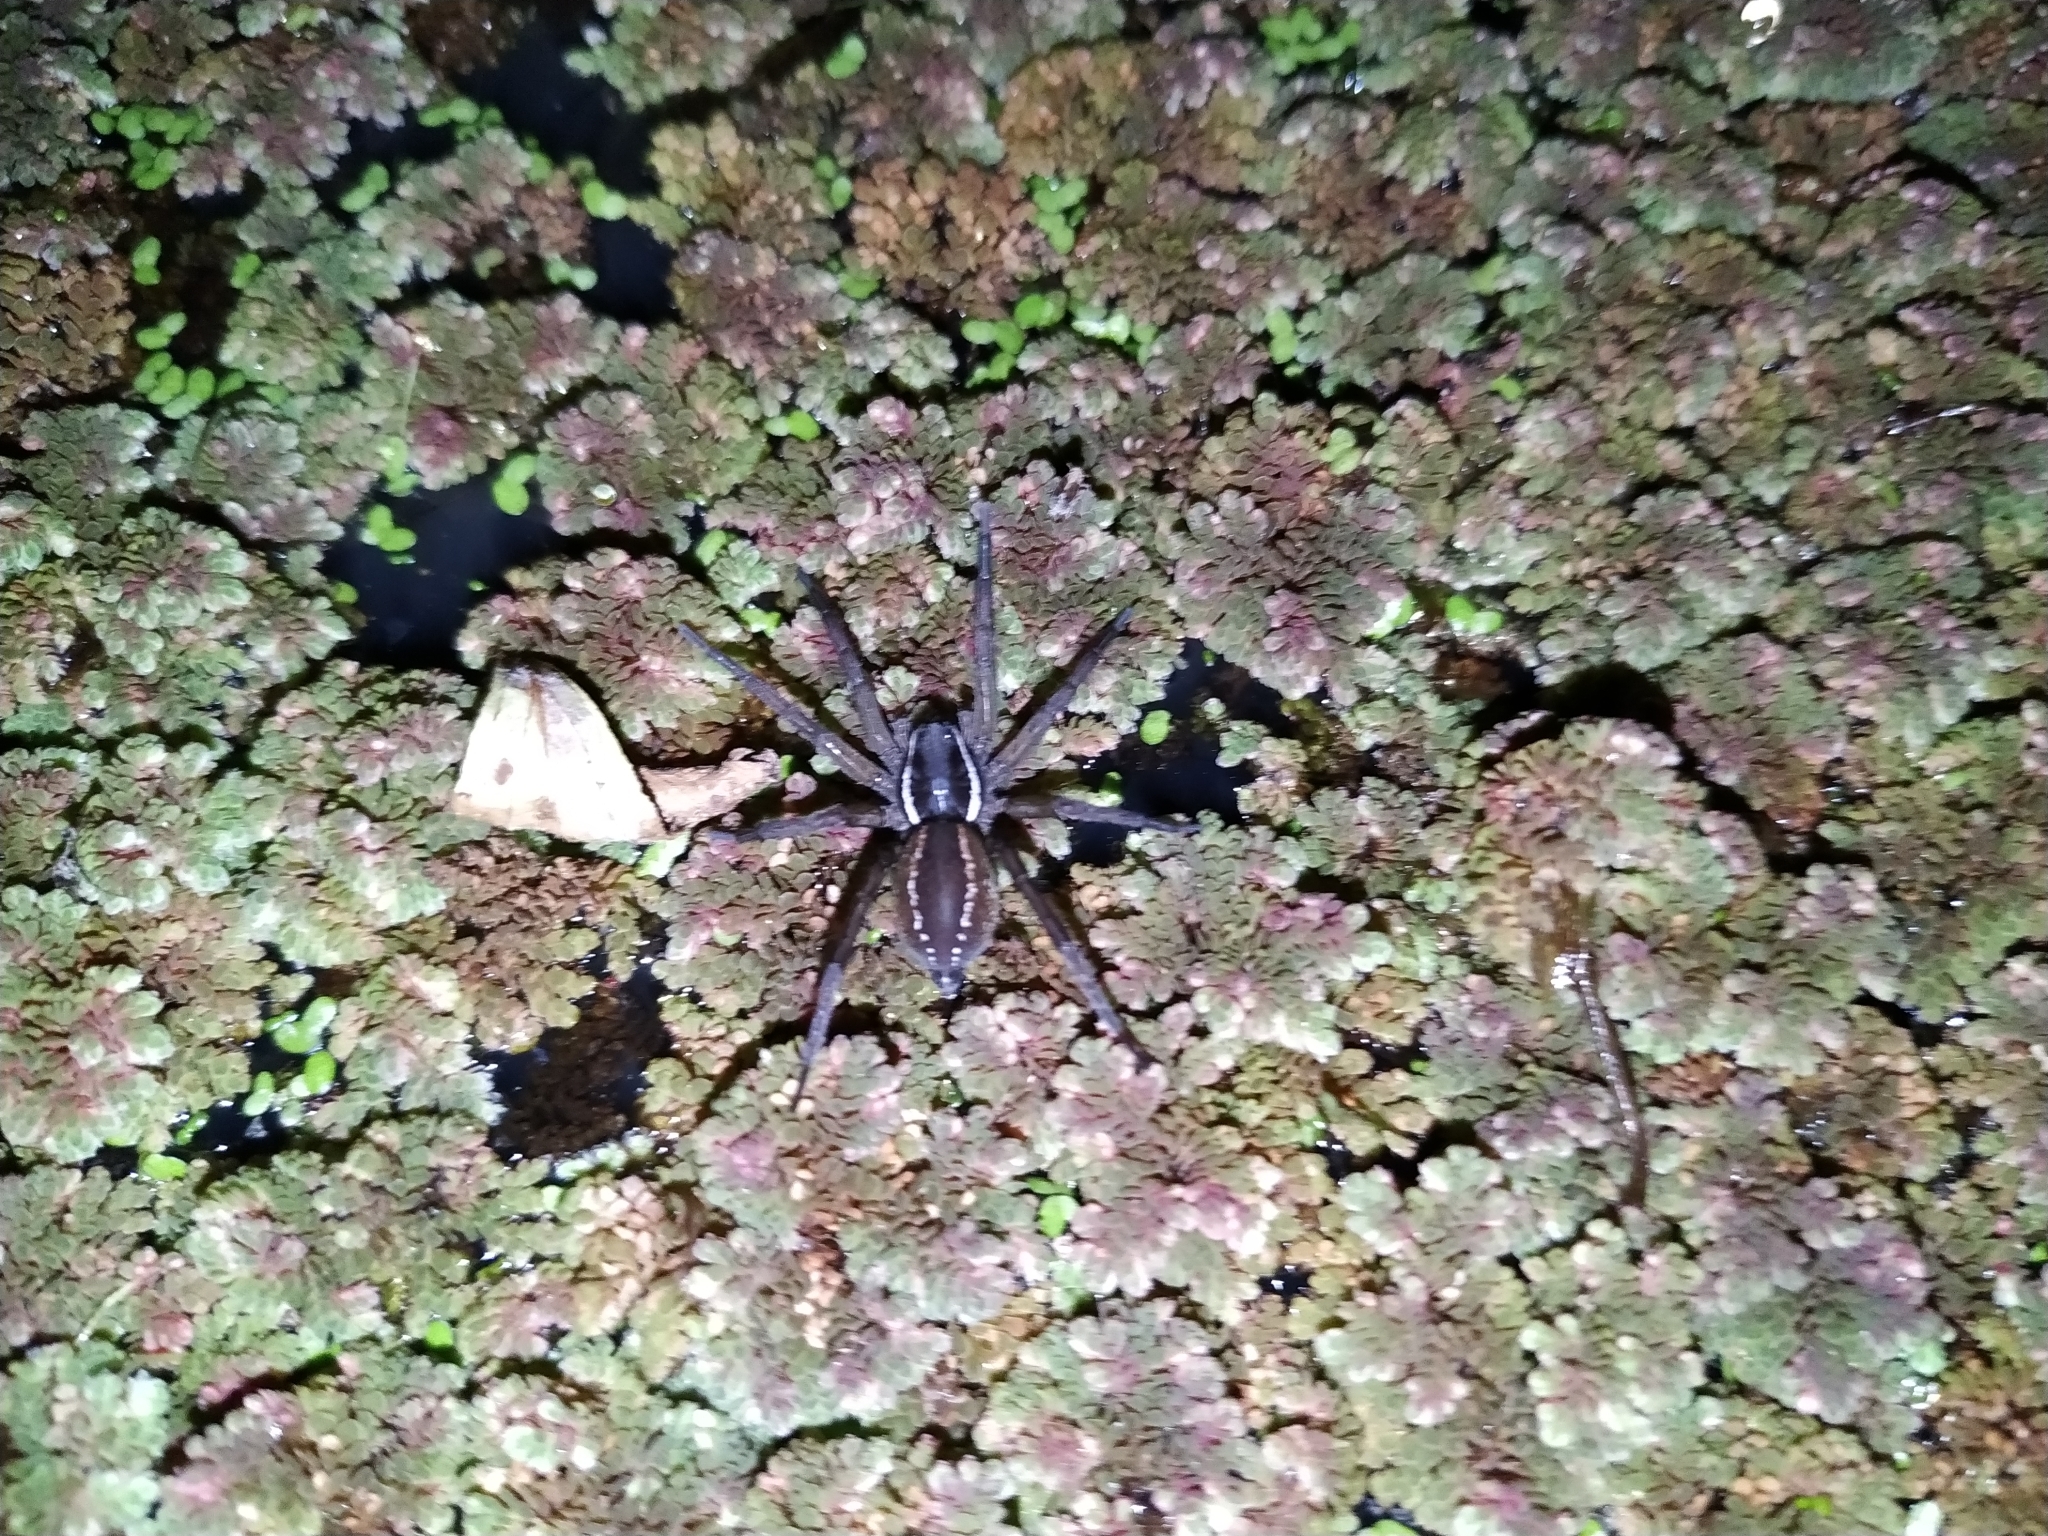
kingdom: Animalia
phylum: Arthropoda
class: Arachnida
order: Araneae
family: Lycosidae
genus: Diapontia
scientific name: Diapontia uruguayensis
